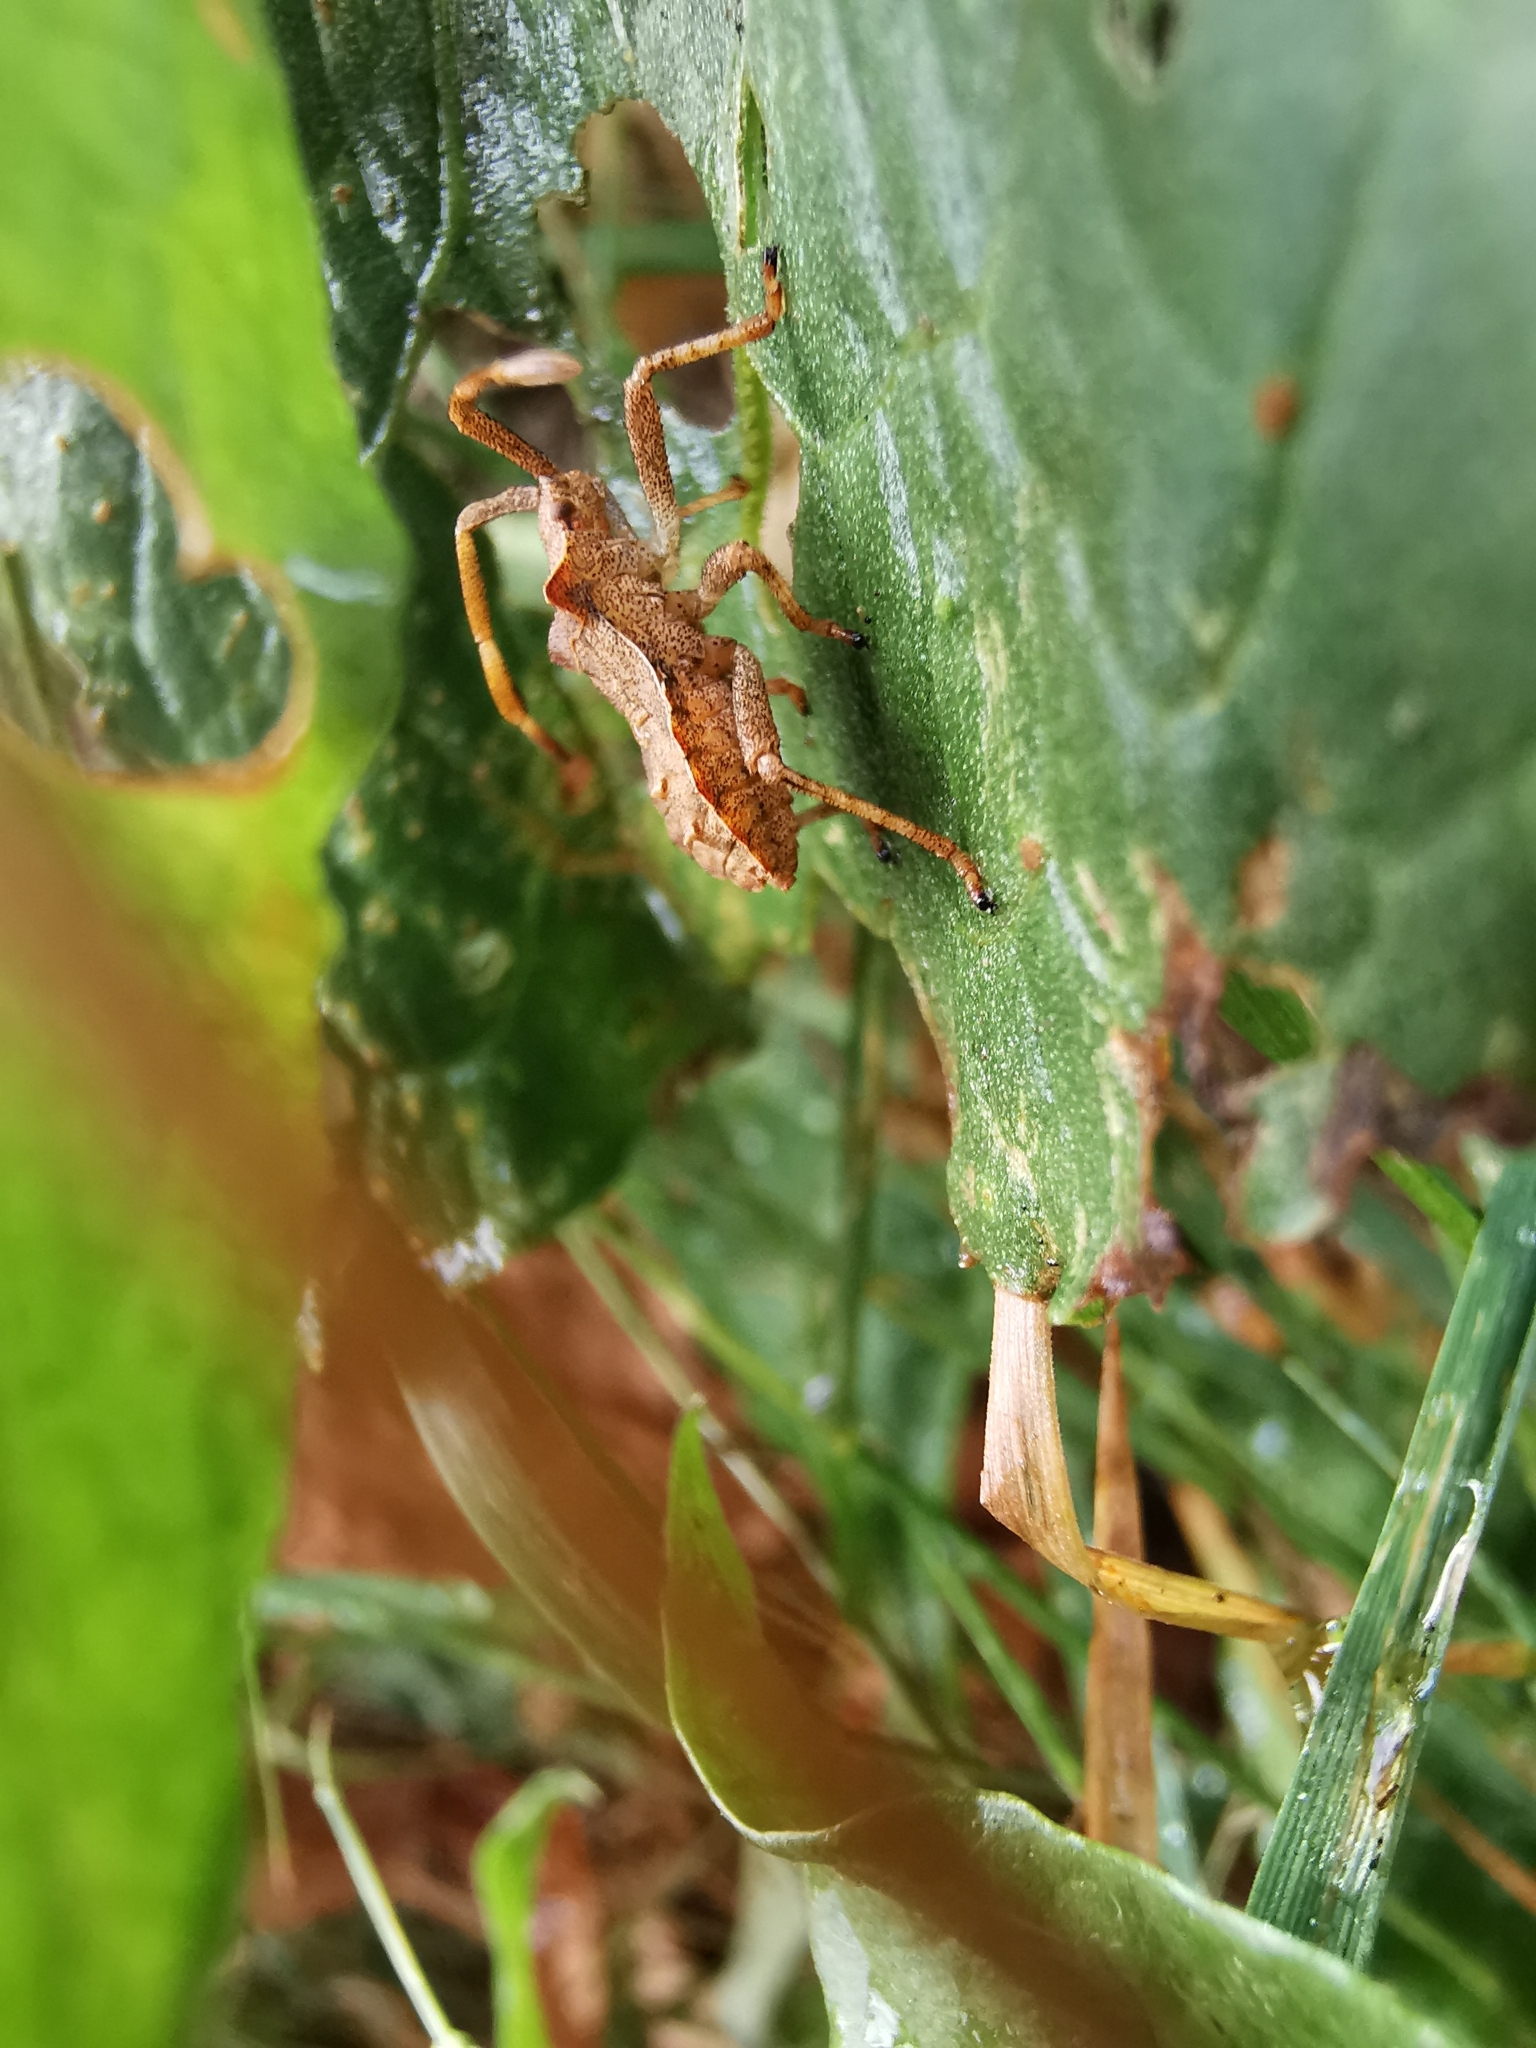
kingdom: Animalia
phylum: Arthropoda
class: Insecta
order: Hemiptera
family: Coreidae
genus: Coreus
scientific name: Coreus marginatus
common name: Dock bug
